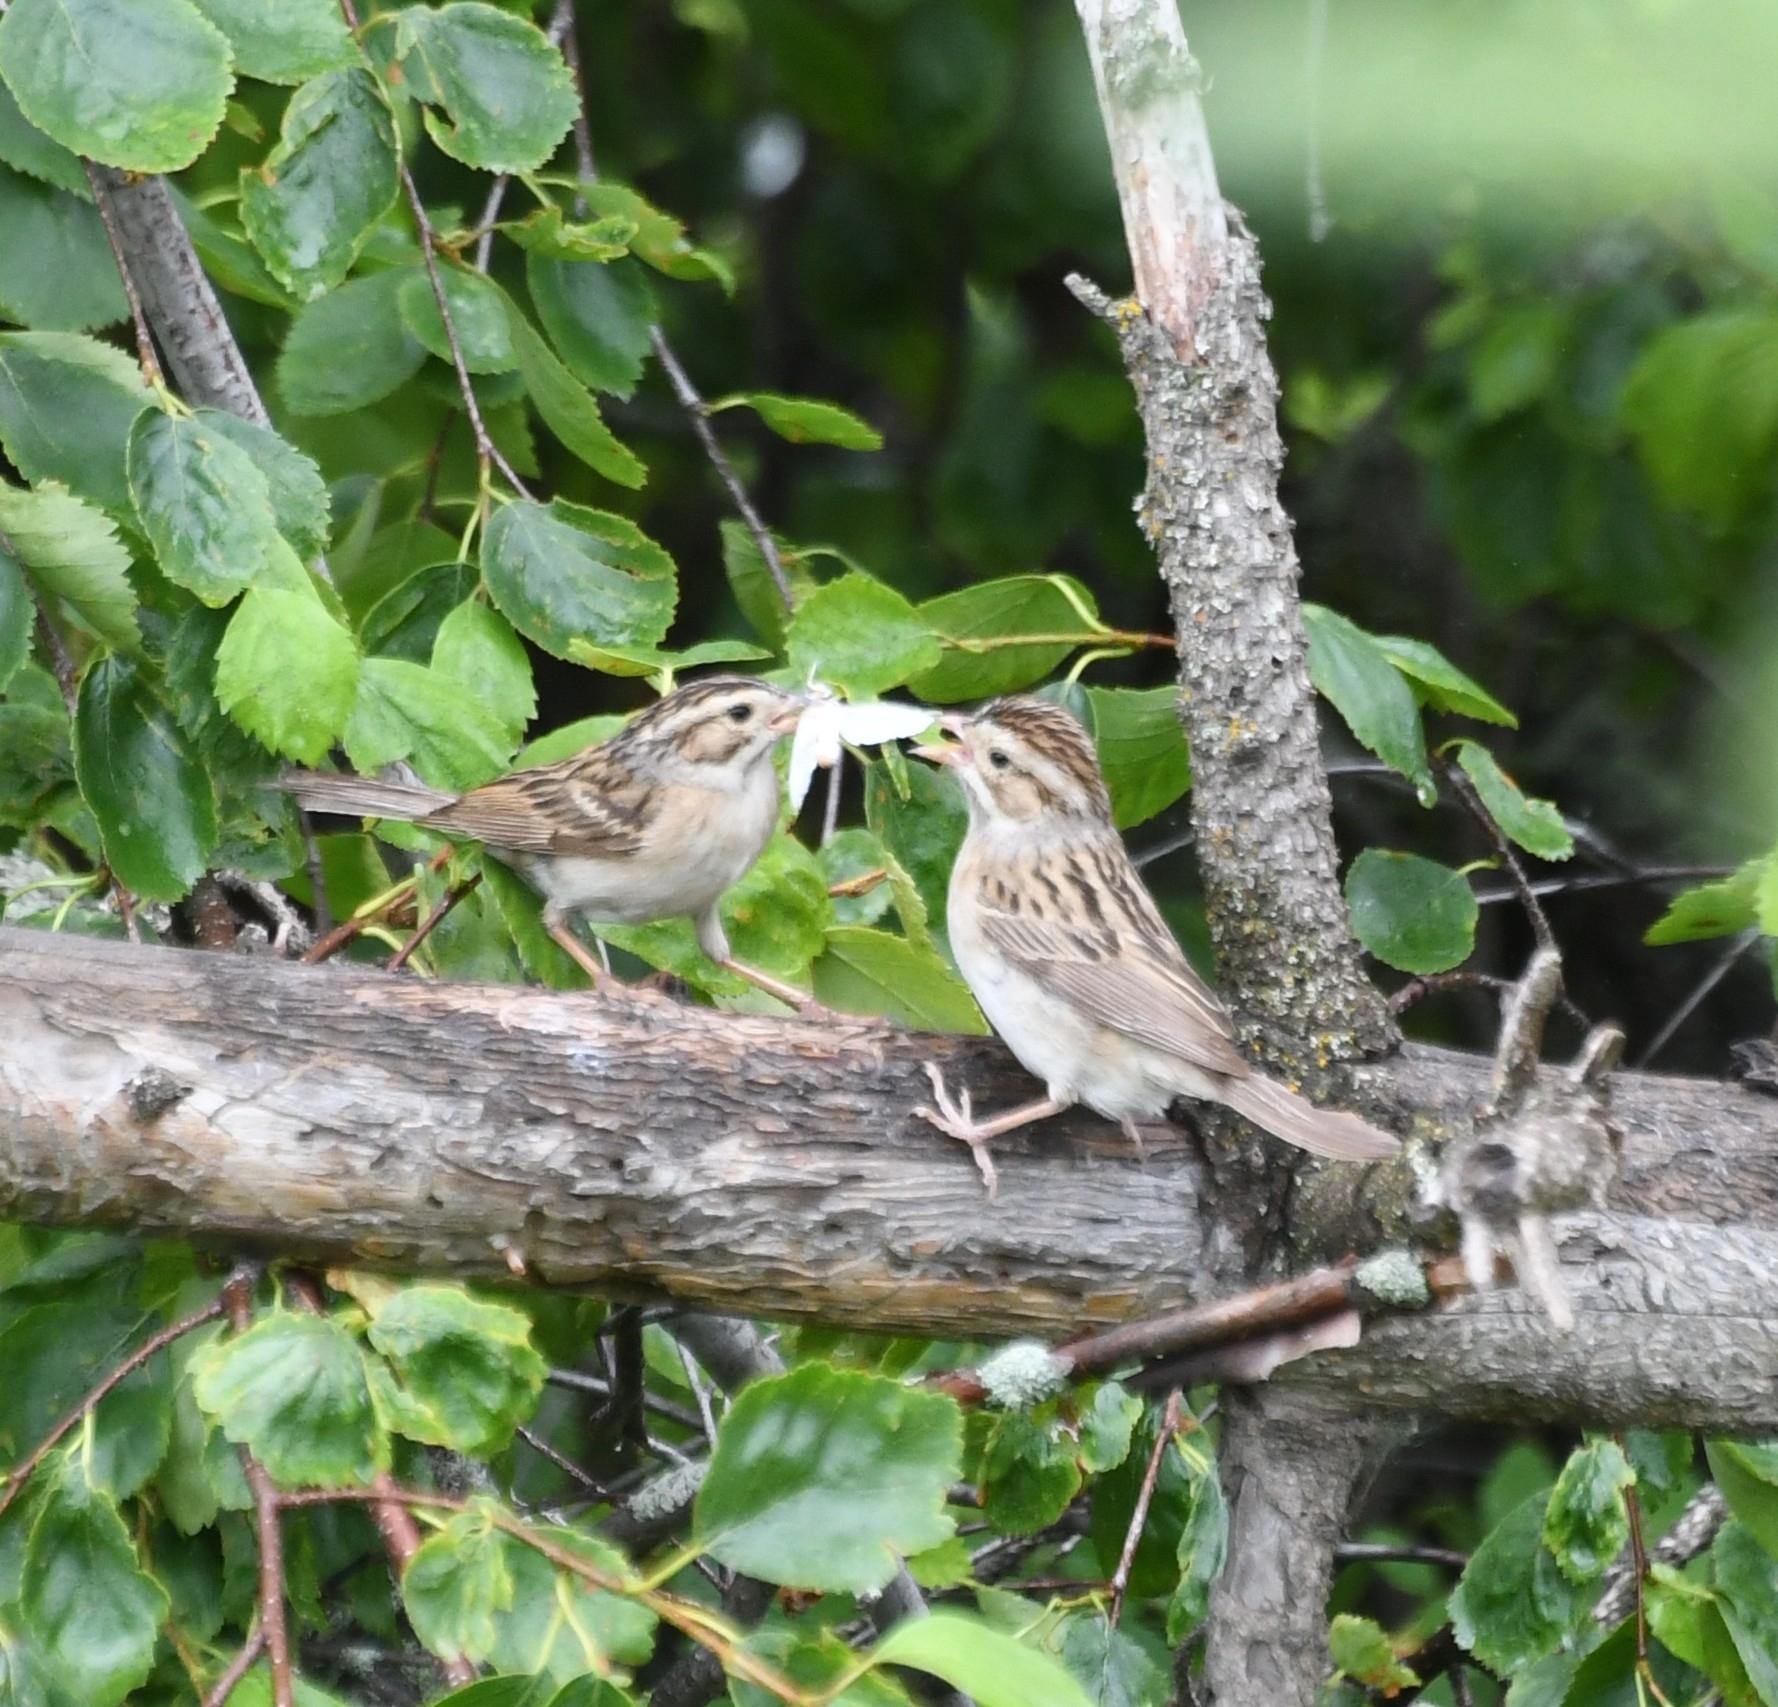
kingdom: Animalia
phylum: Chordata
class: Aves
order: Passeriformes
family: Passerellidae
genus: Spizella
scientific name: Spizella pallida
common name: Clay-colored sparrow
